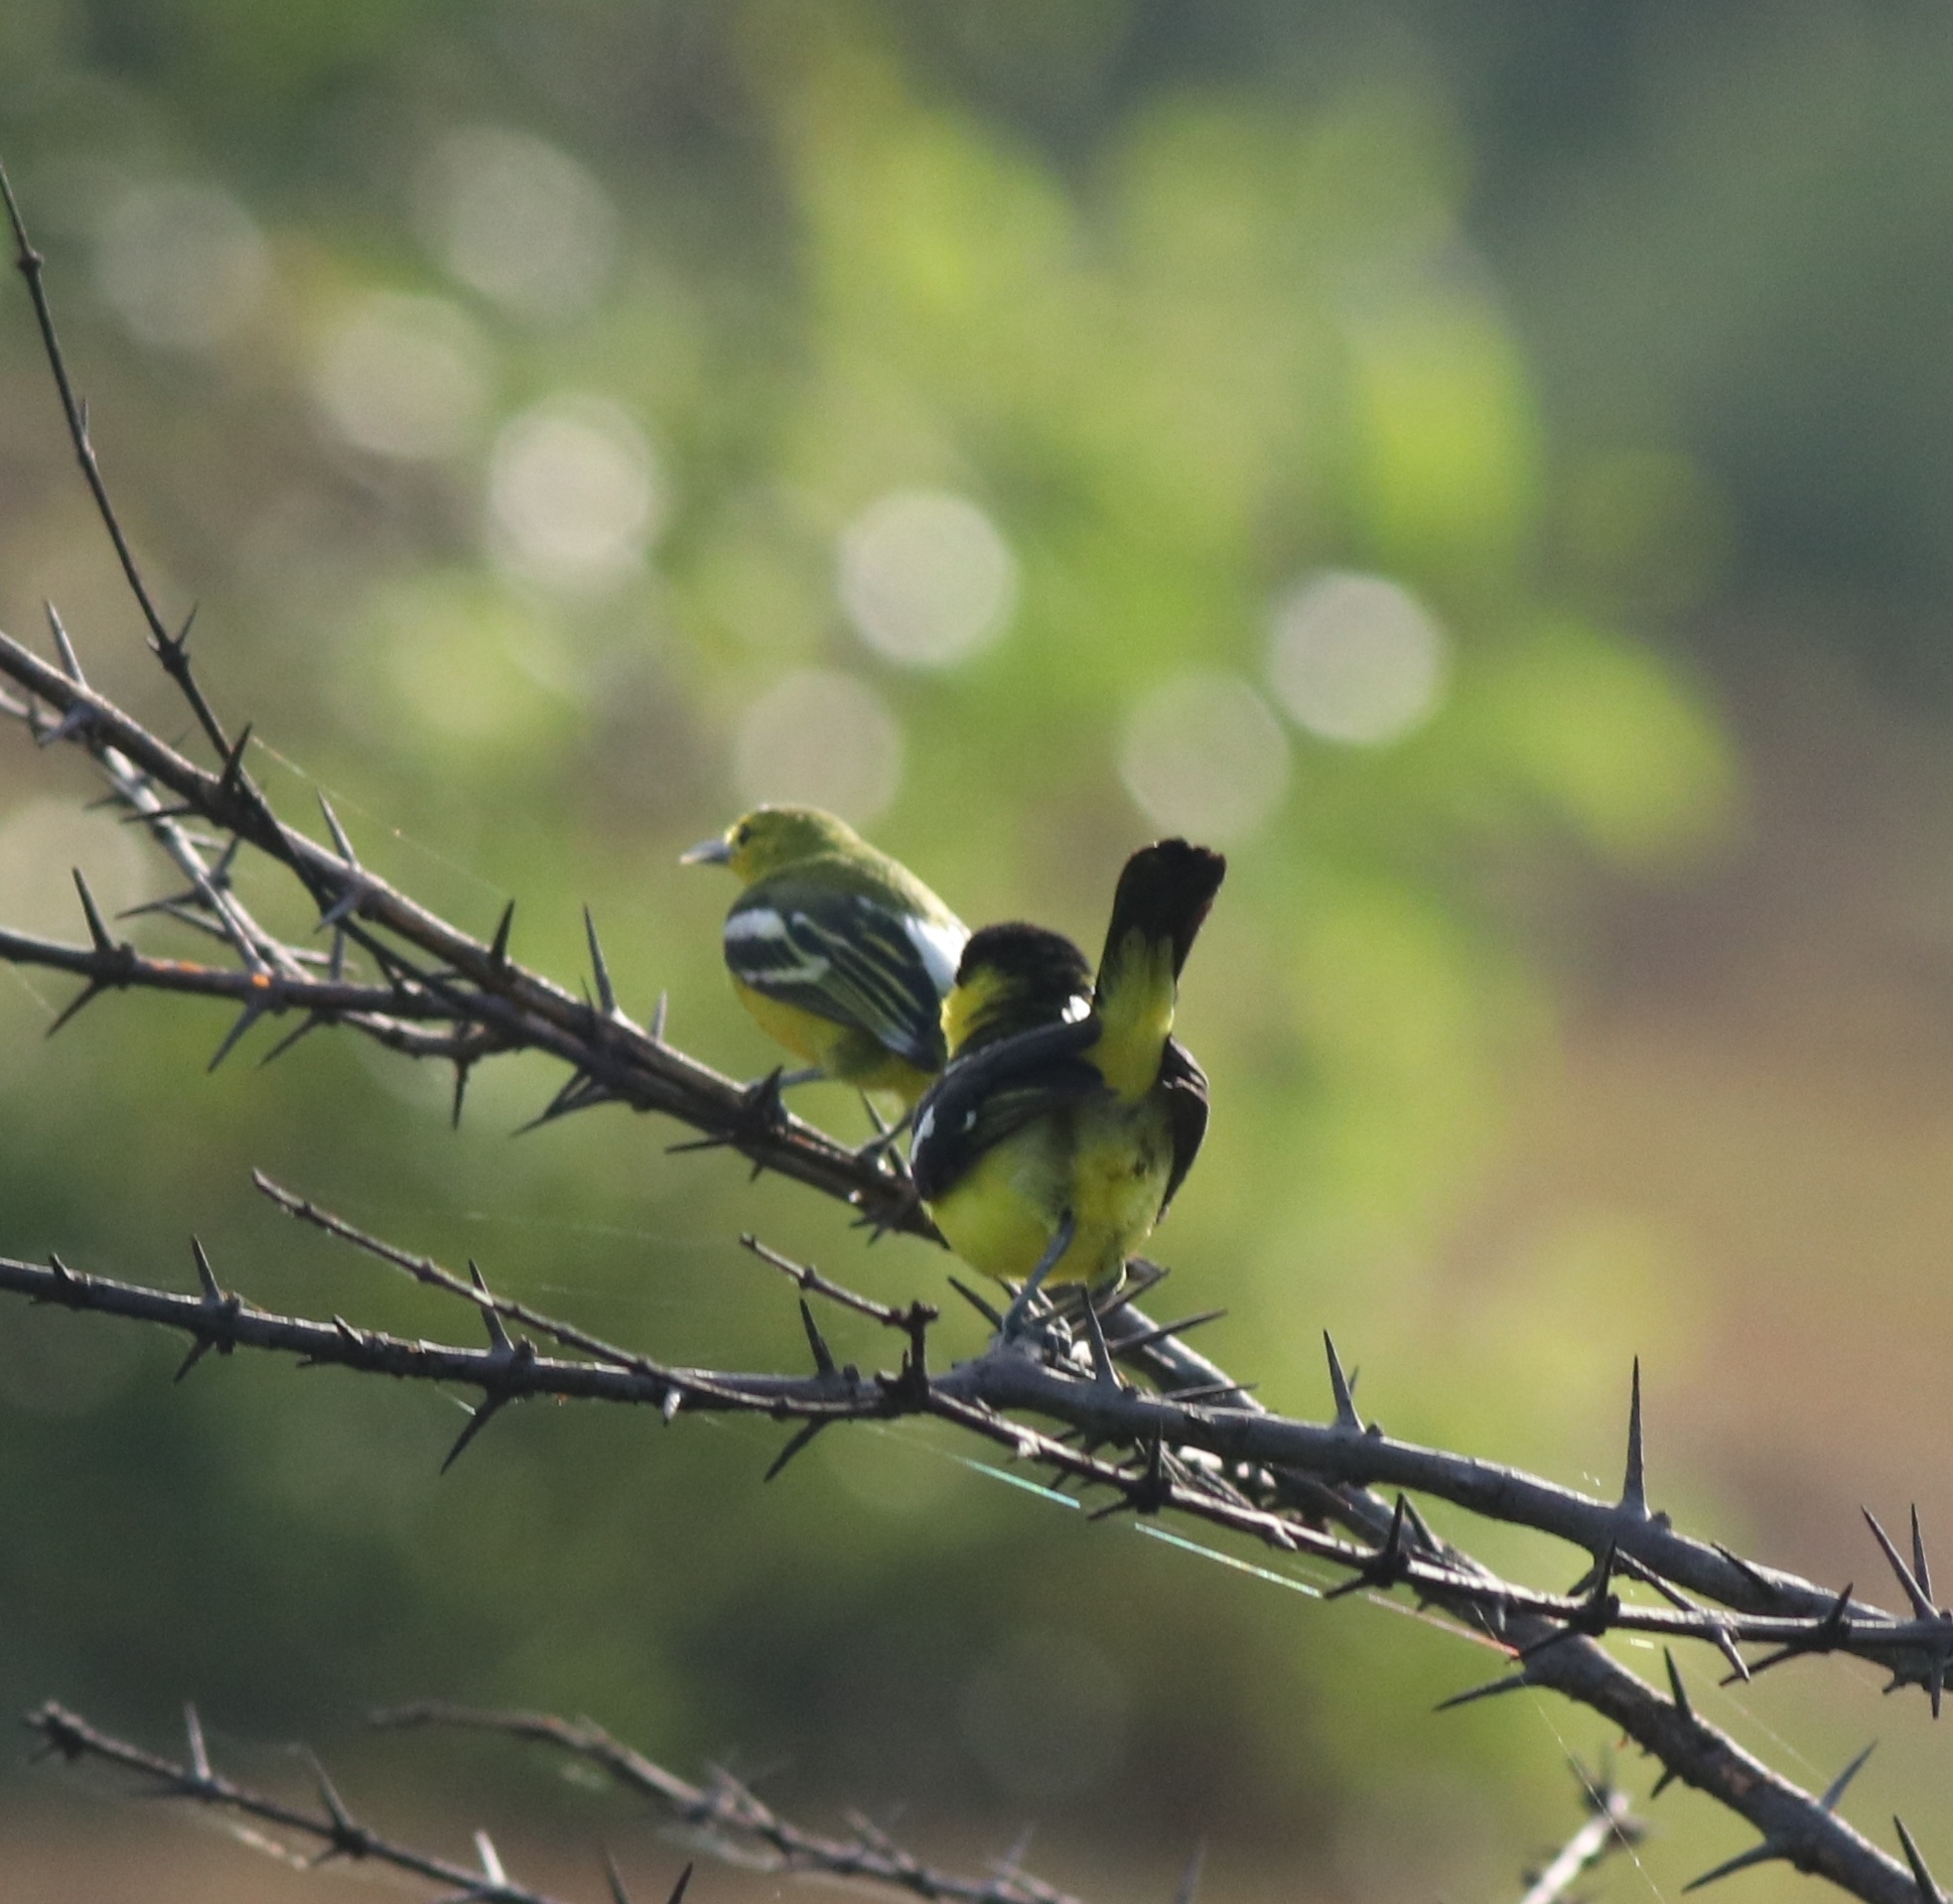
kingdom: Animalia
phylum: Chordata
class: Aves
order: Passeriformes
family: Aegithinidae
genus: Aegithina
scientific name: Aegithina tiphia
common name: Common iora
